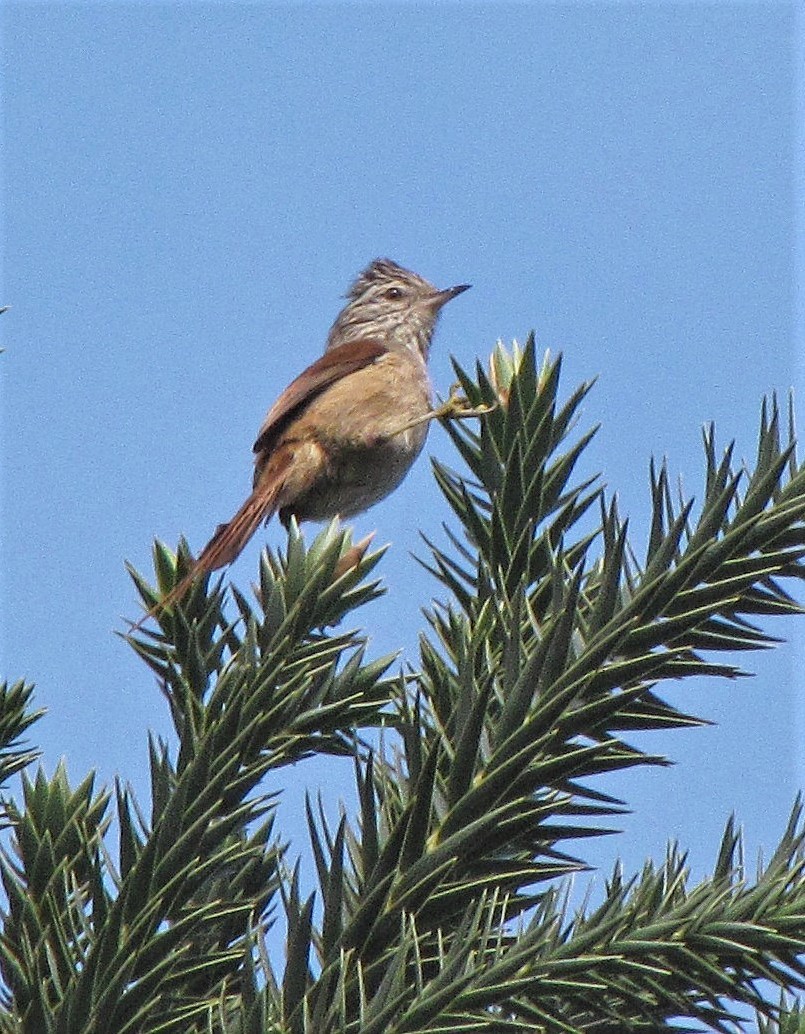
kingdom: Animalia
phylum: Chordata
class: Aves
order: Passeriformes
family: Furnariidae
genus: Leptasthenura
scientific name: Leptasthenura setaria
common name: Araucaria tit-spinetail
